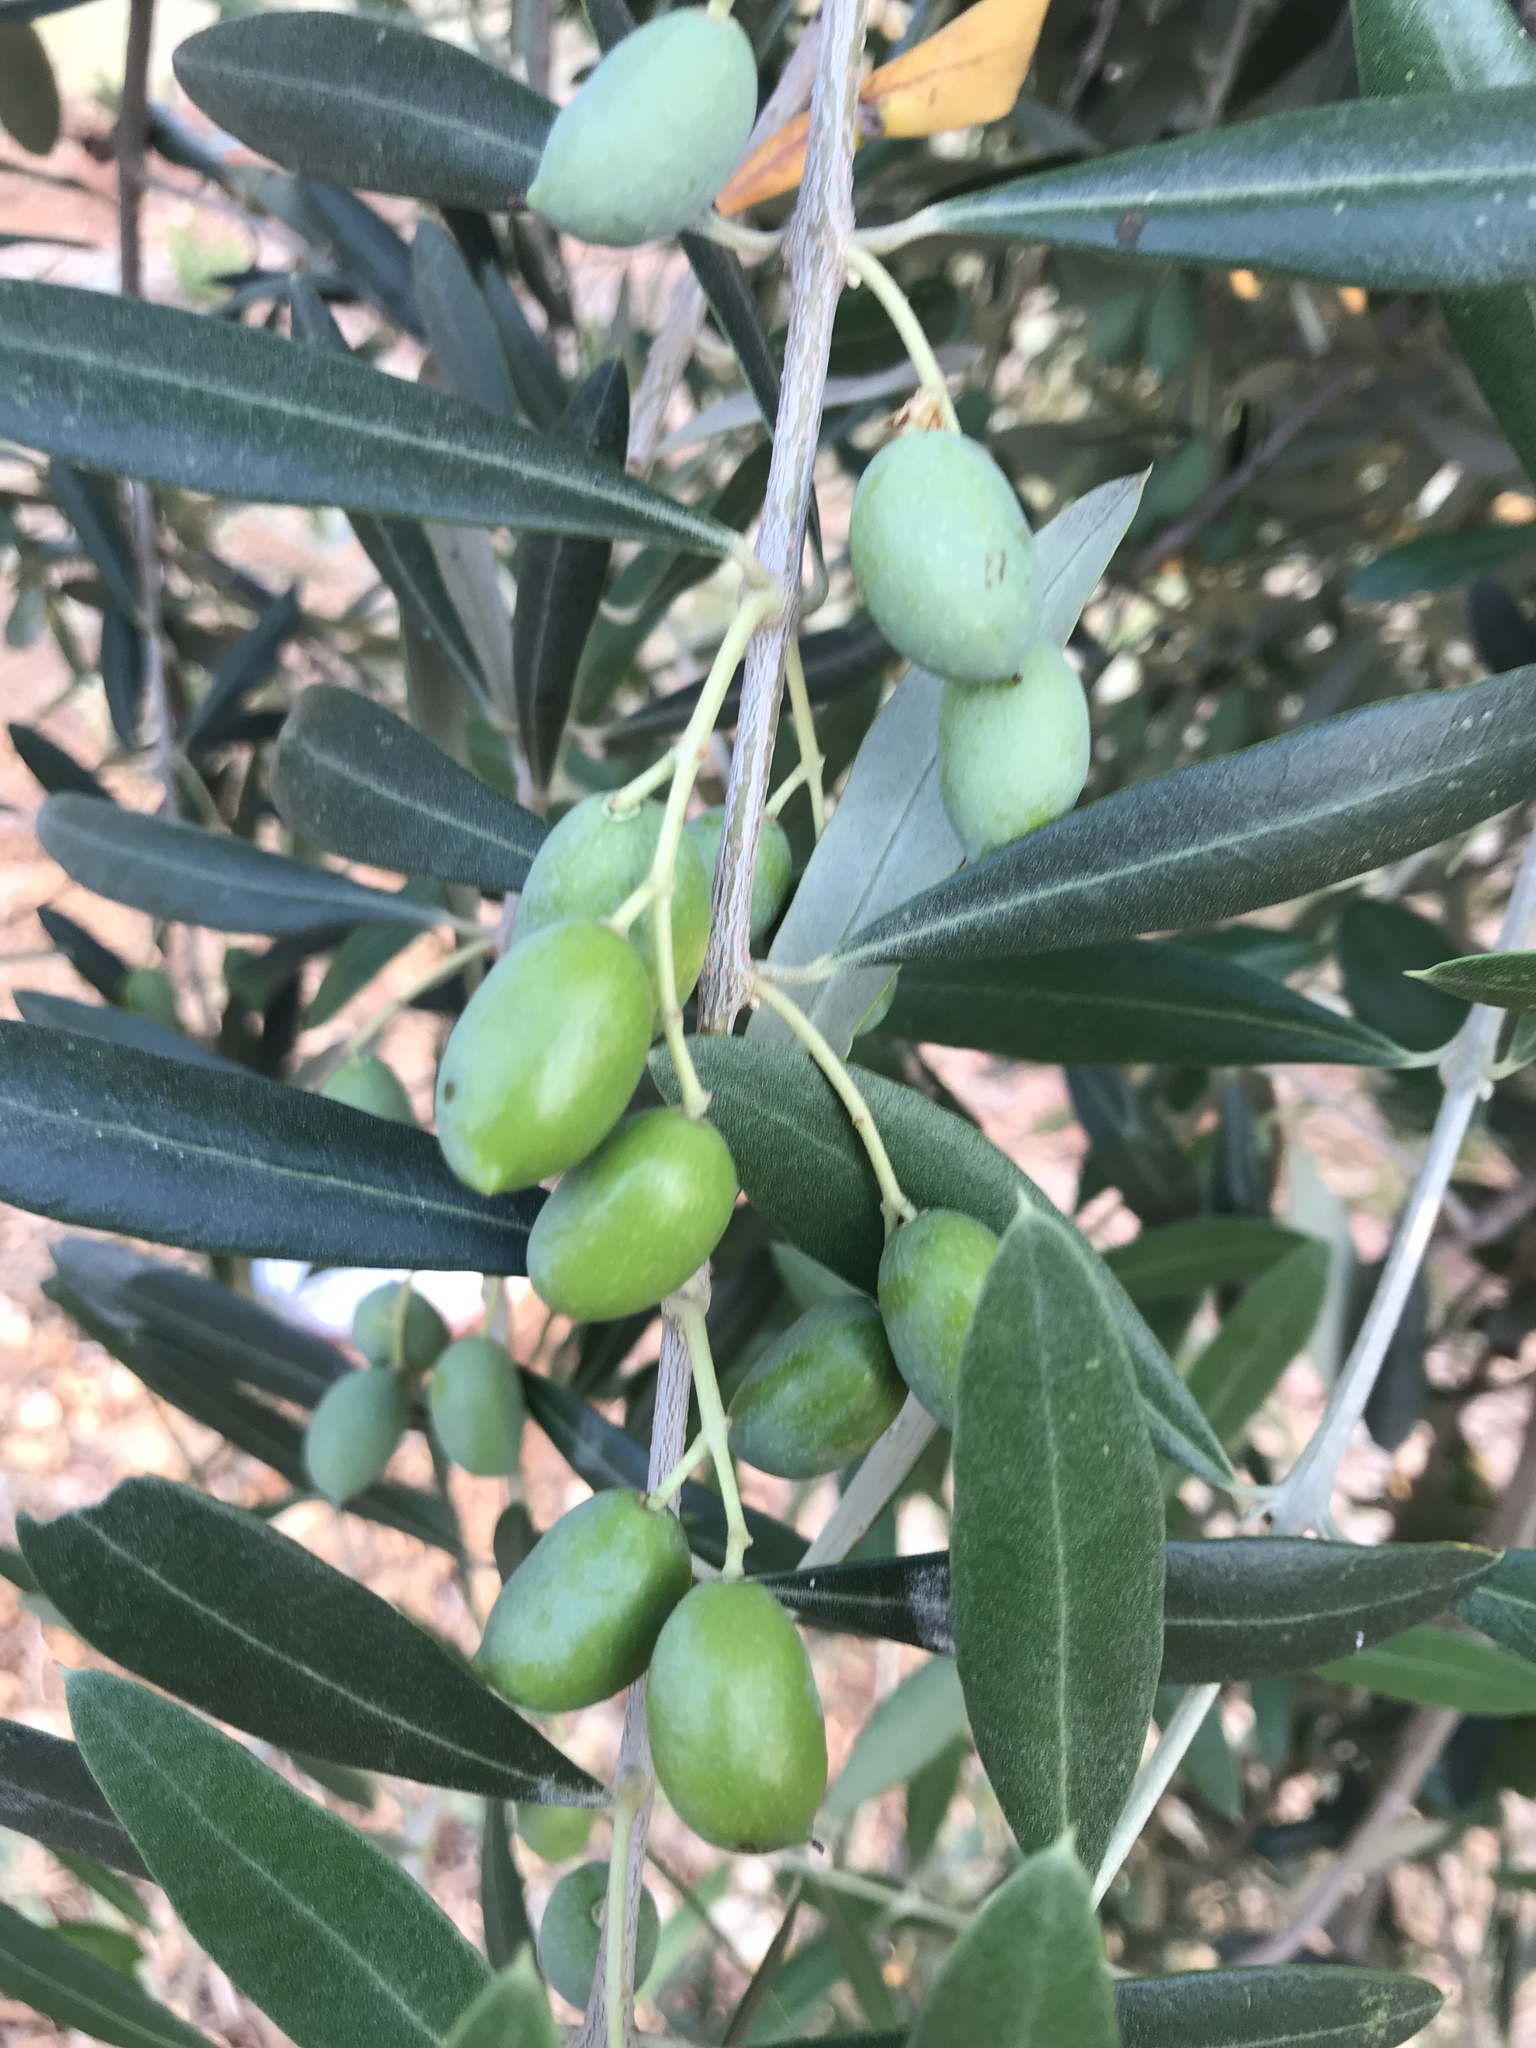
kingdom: Plantae
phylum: Tracheophyta
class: Magnoliopsida
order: Lamiales
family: Oleaceae
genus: Olea
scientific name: Olea europaea
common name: Olive
